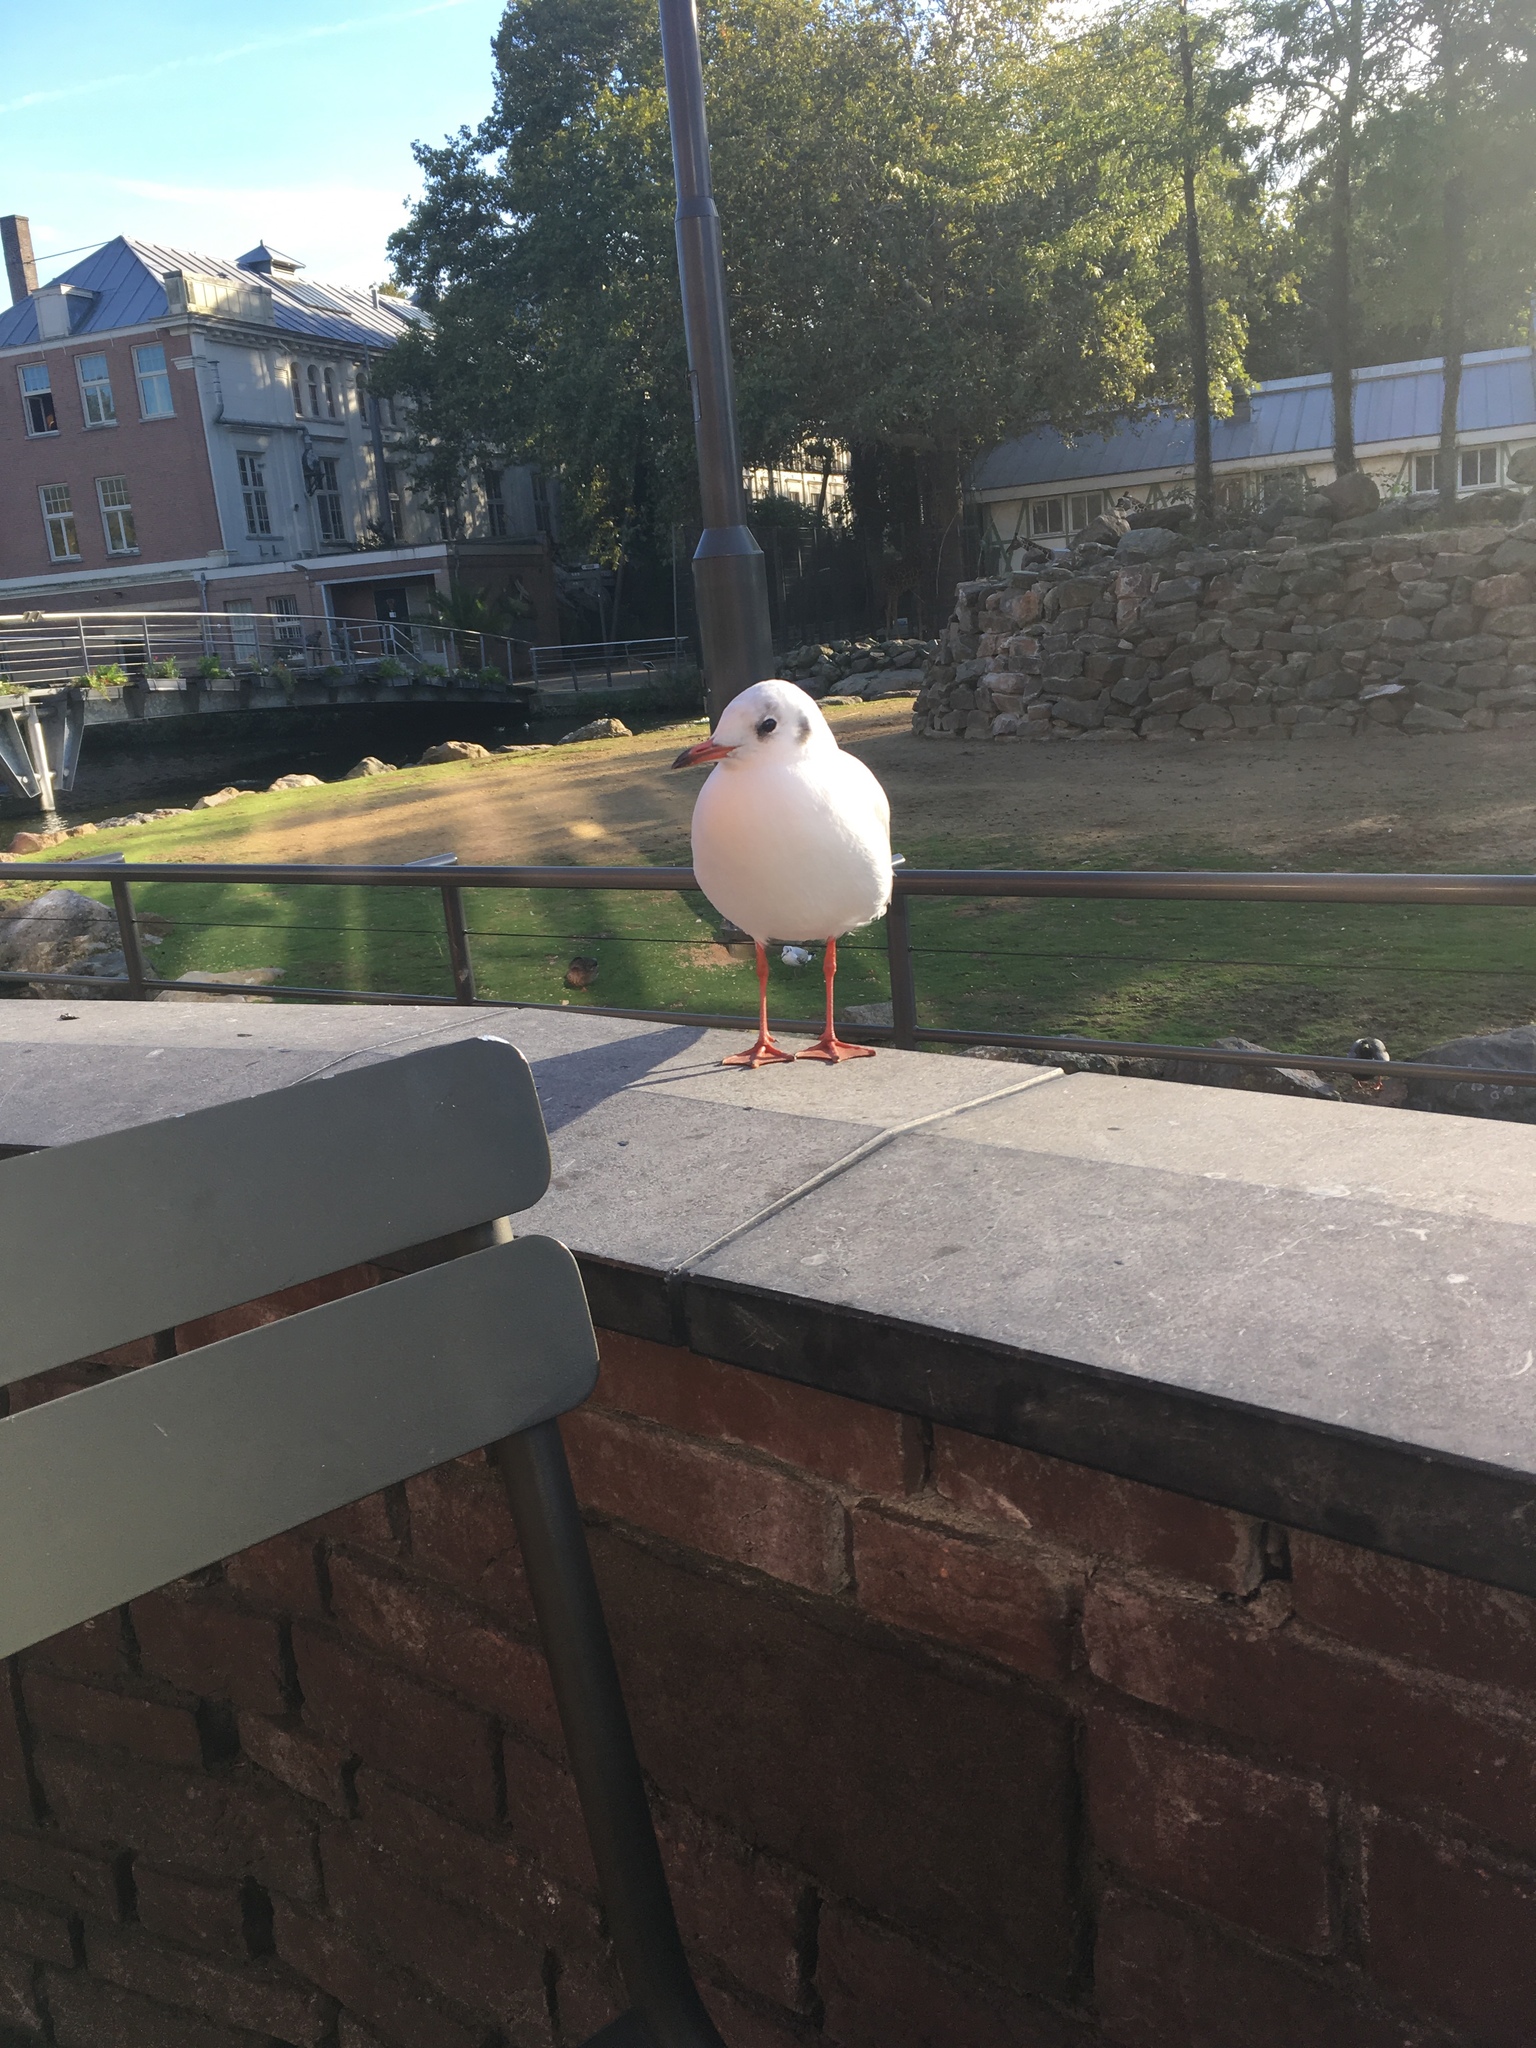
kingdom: Animalia
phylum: Chordata
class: Aves
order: Charadriiformes
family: Laridae
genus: Chroicocephalus
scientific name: Chroicocephalus ridibundus
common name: Black-headed gull
